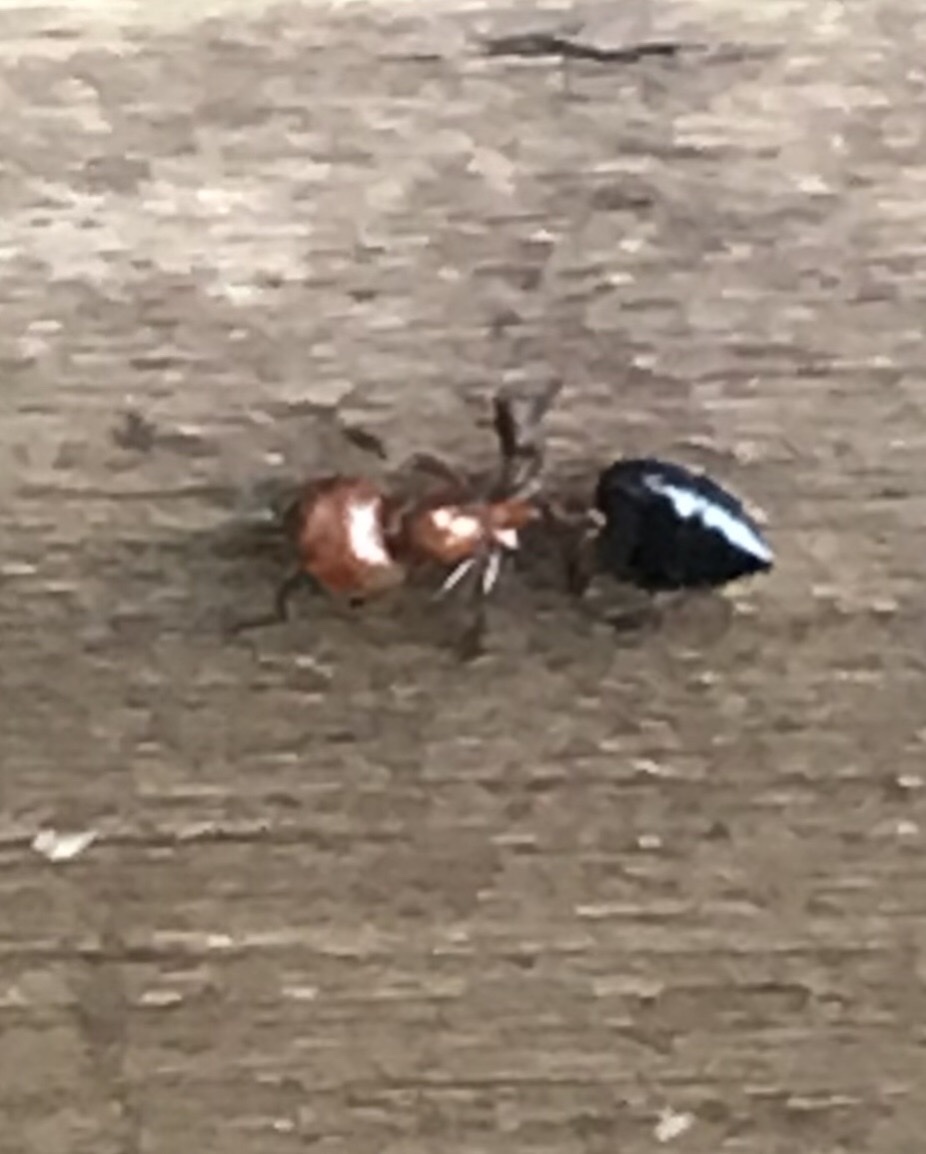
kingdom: Animalia
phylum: Arthropoda
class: Insecta
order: Hymenoptera
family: Formicidae
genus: Crematogaster
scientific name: Crematogaster laeviuscula
